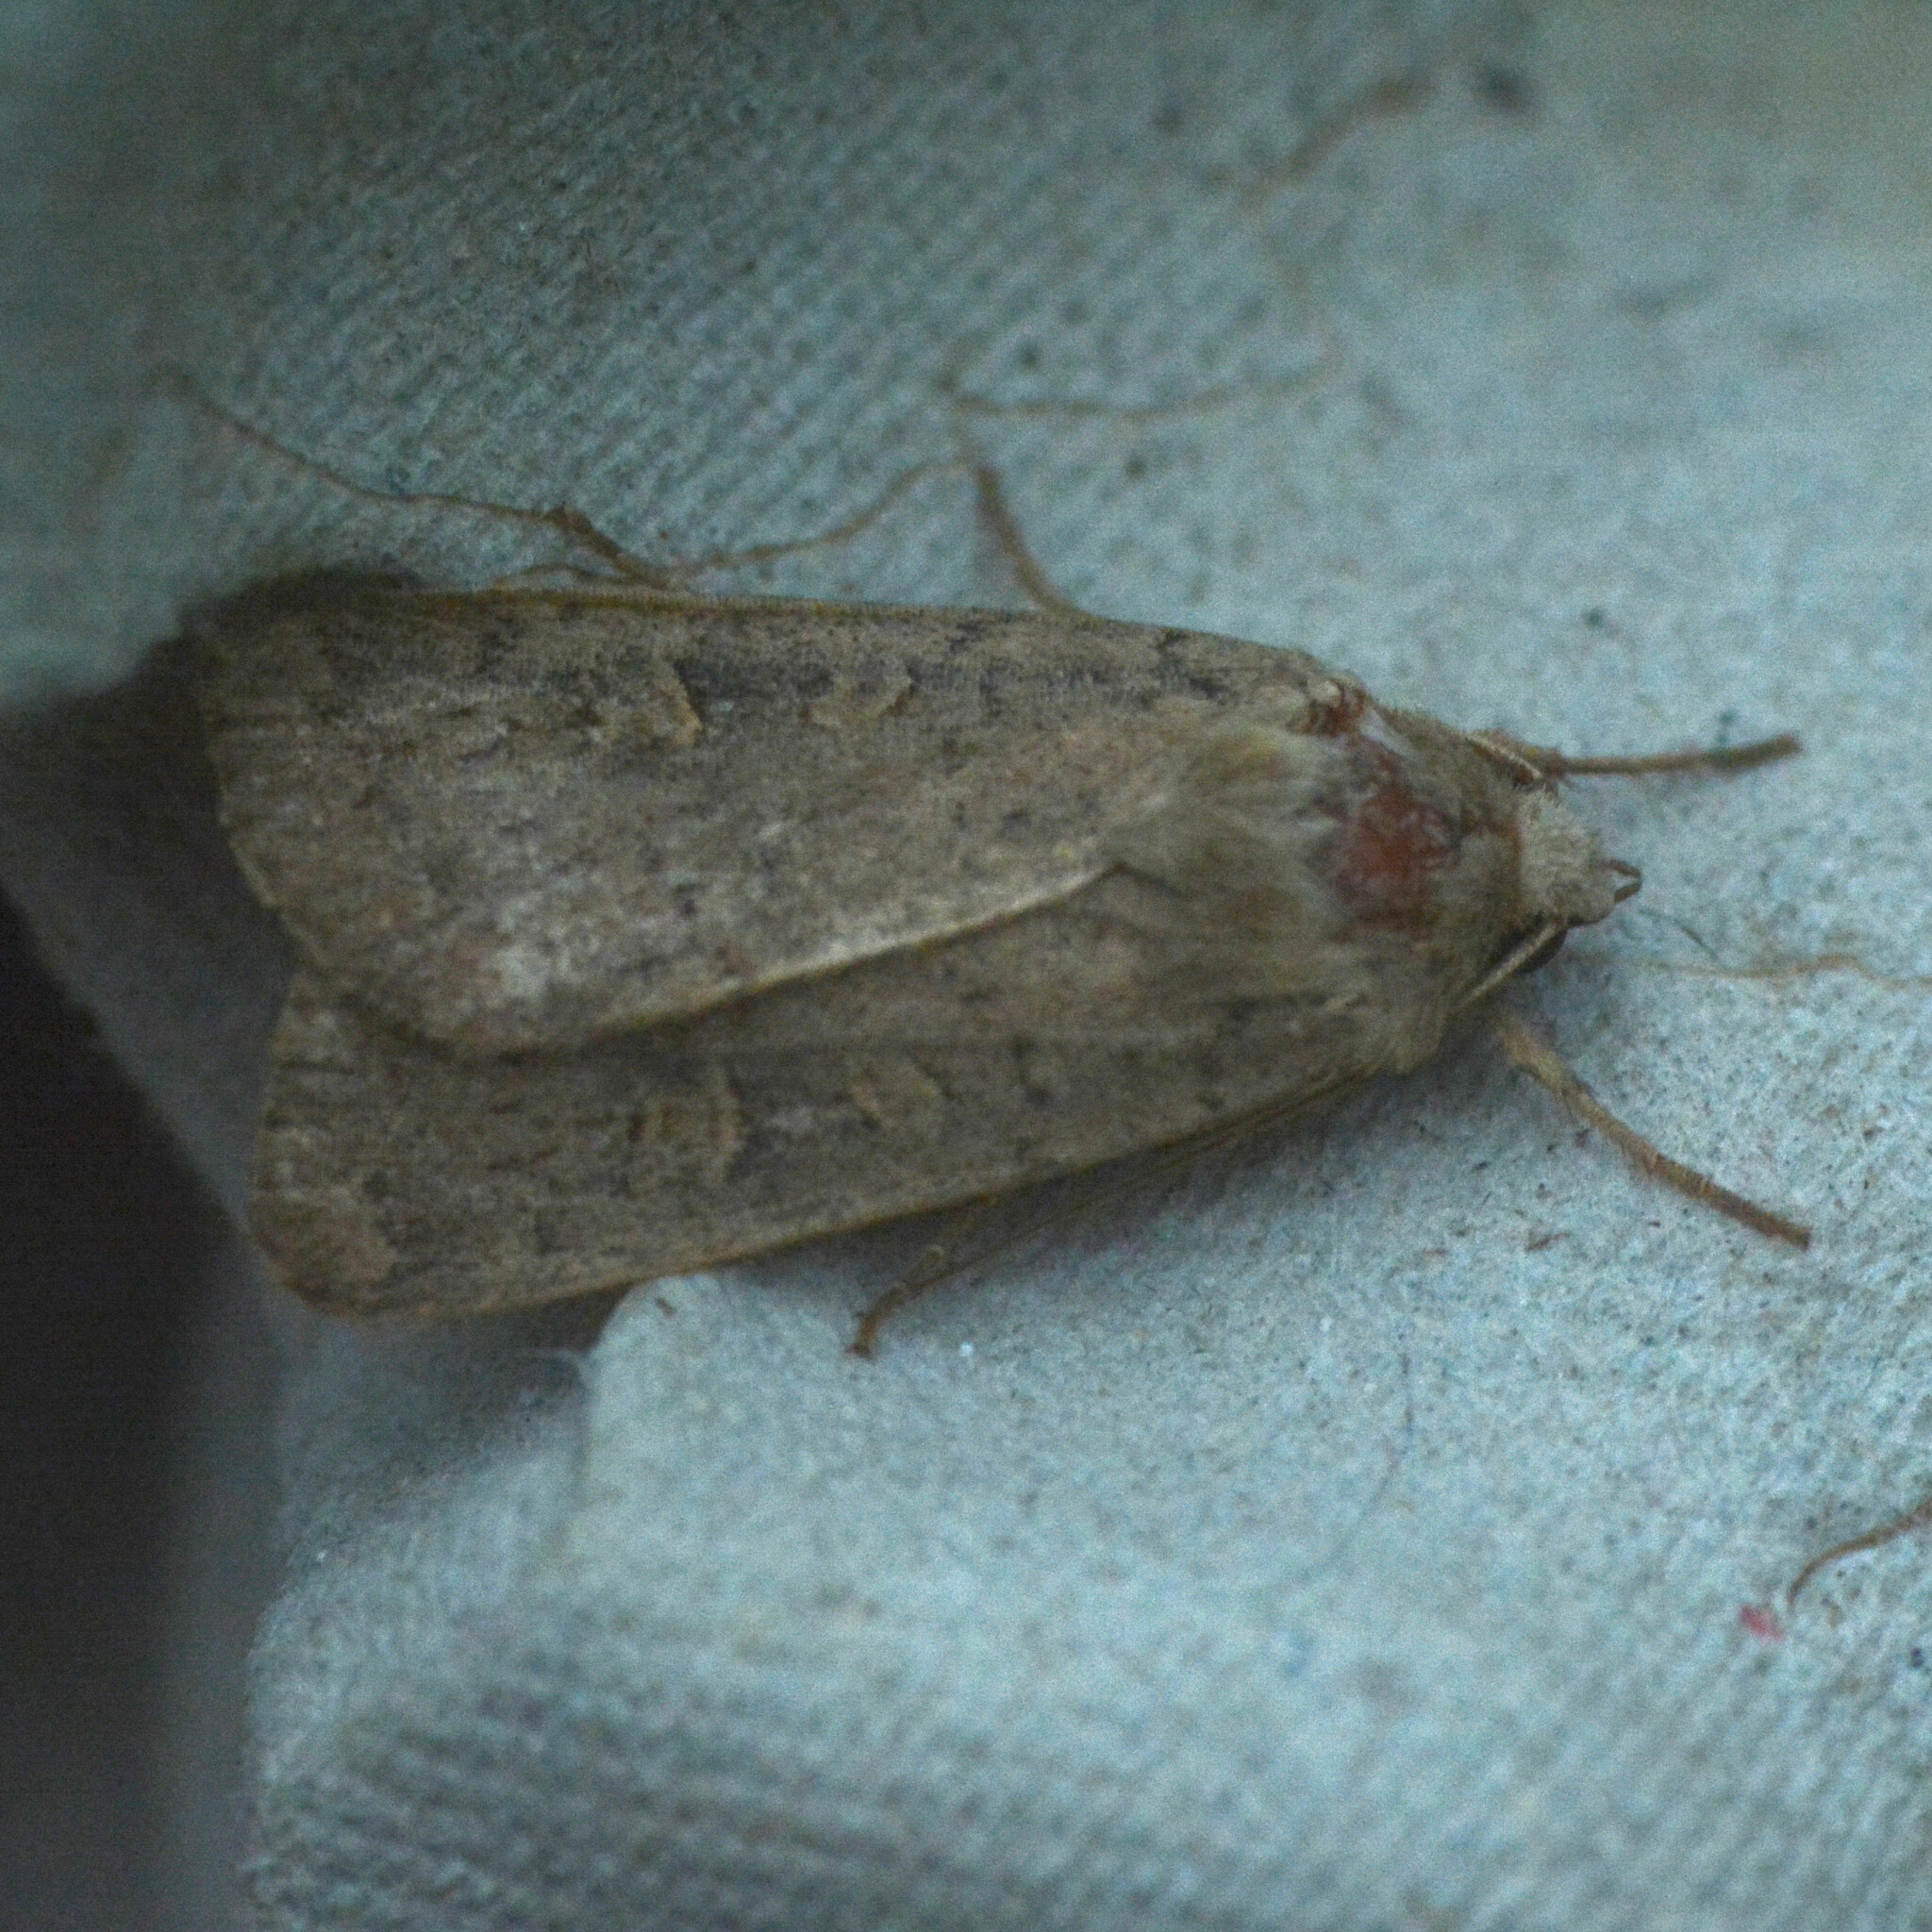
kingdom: Animalia
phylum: Arthropoda
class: Insecta
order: Lepidoptera
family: Noctuidae
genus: Xestia
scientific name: Xestia xanthographa
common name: Square-spot rustic
